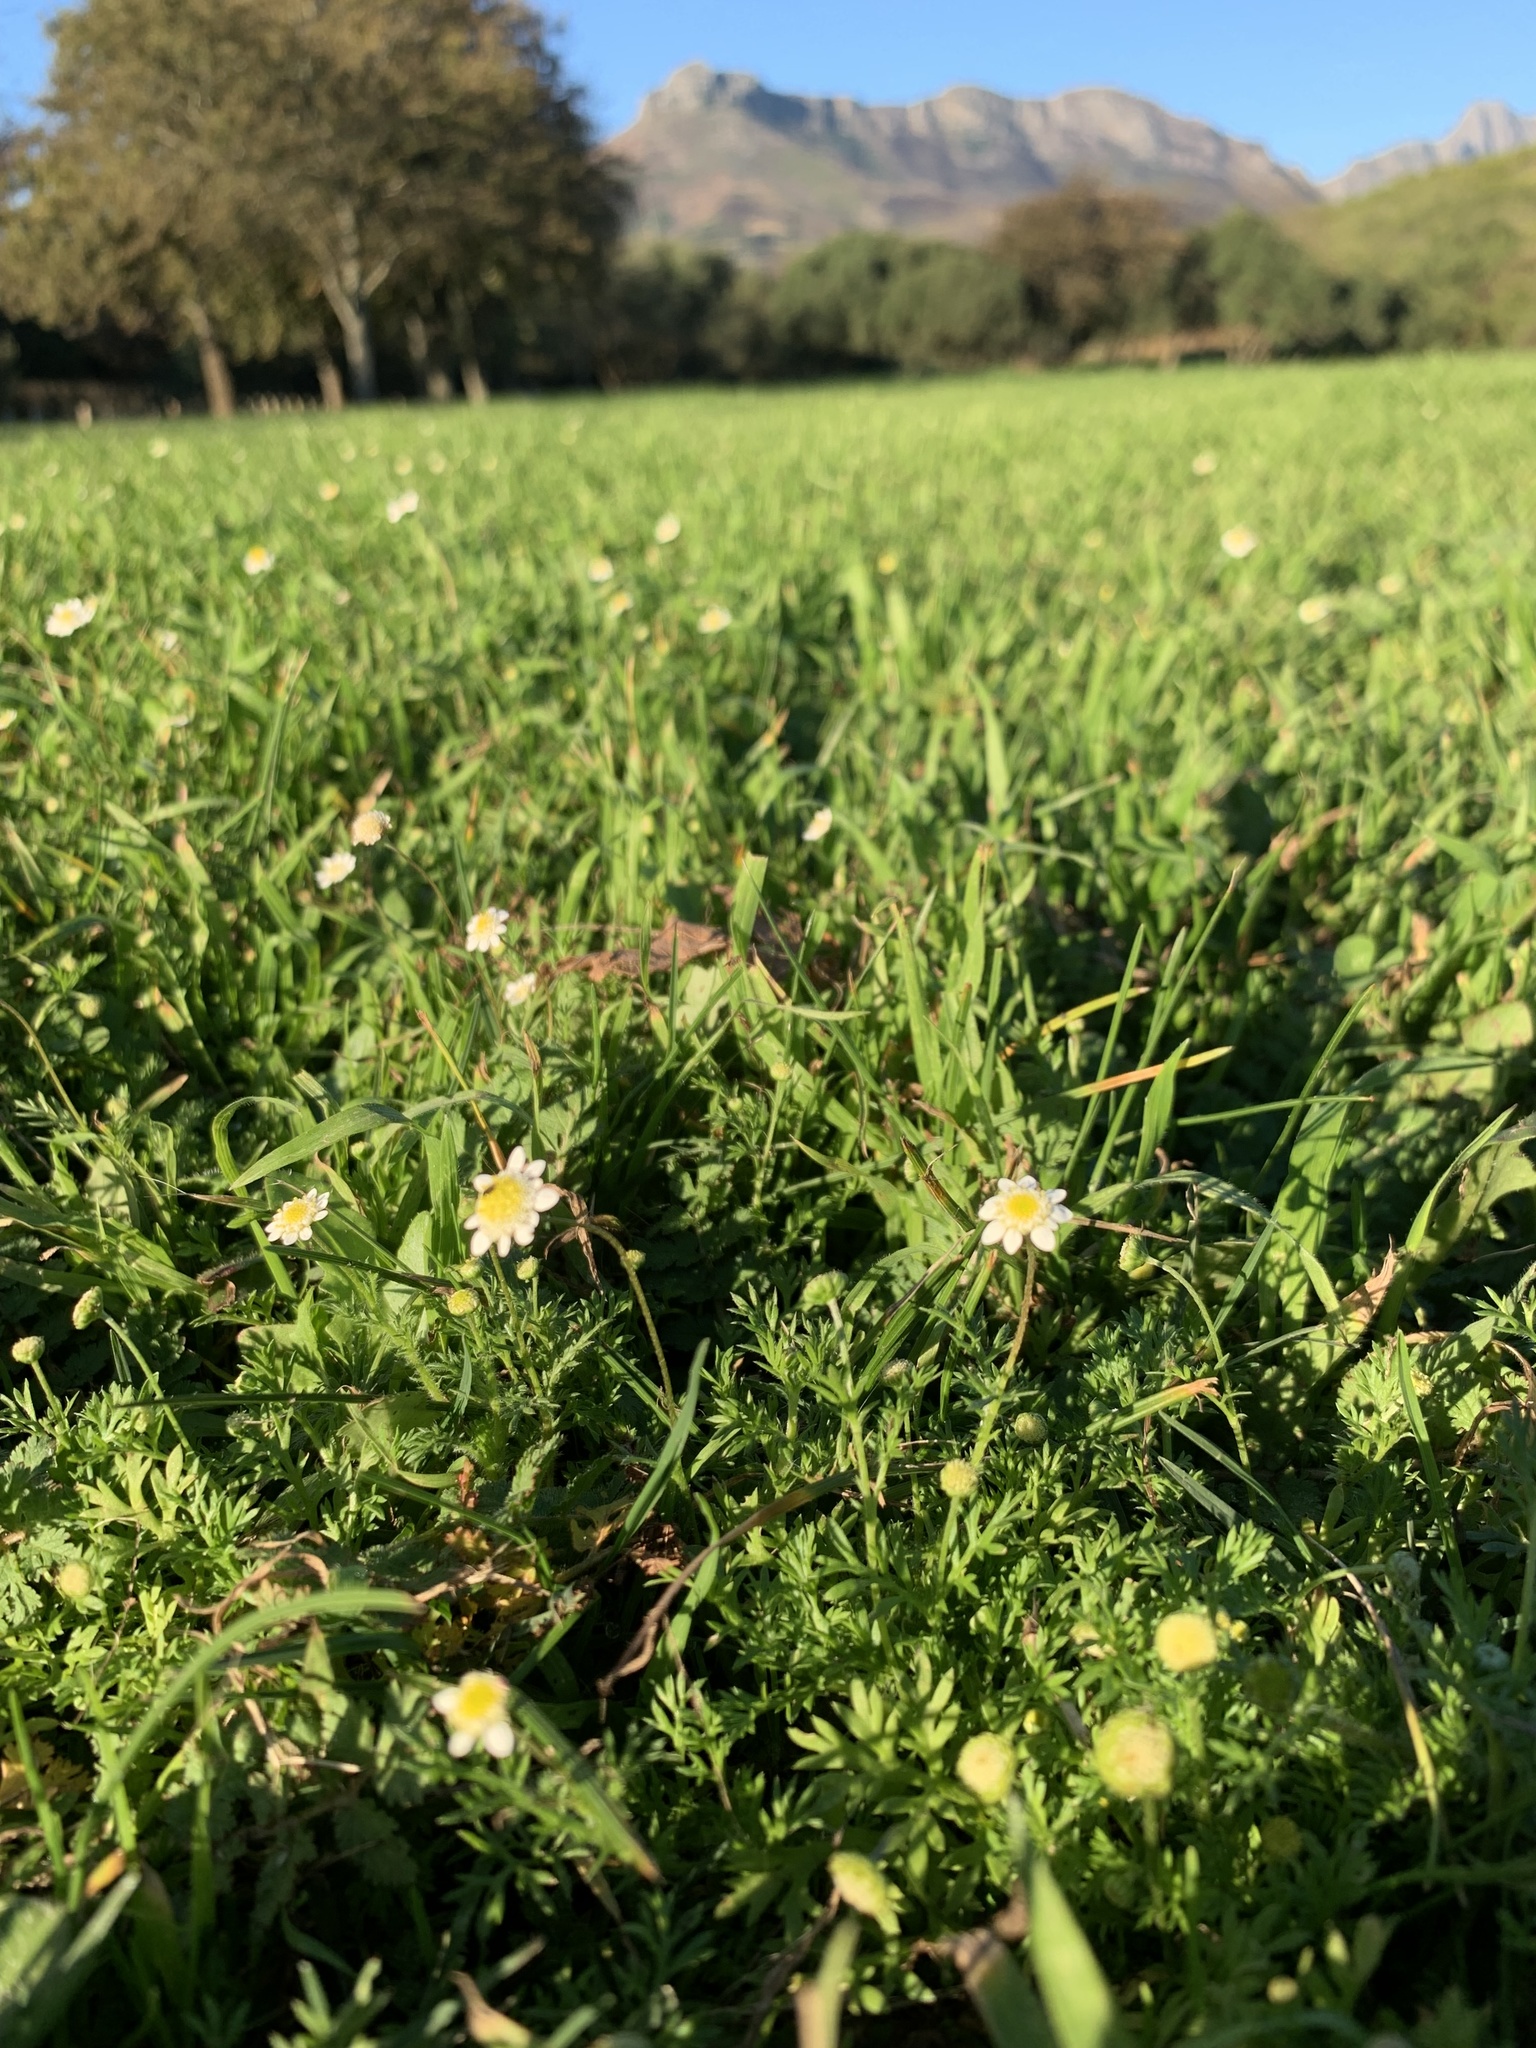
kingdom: Plantae
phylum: Tracheophyta
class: Magnoliopsida
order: Asterales
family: Asteraceae
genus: Cotula
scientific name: Cotula turbinata
